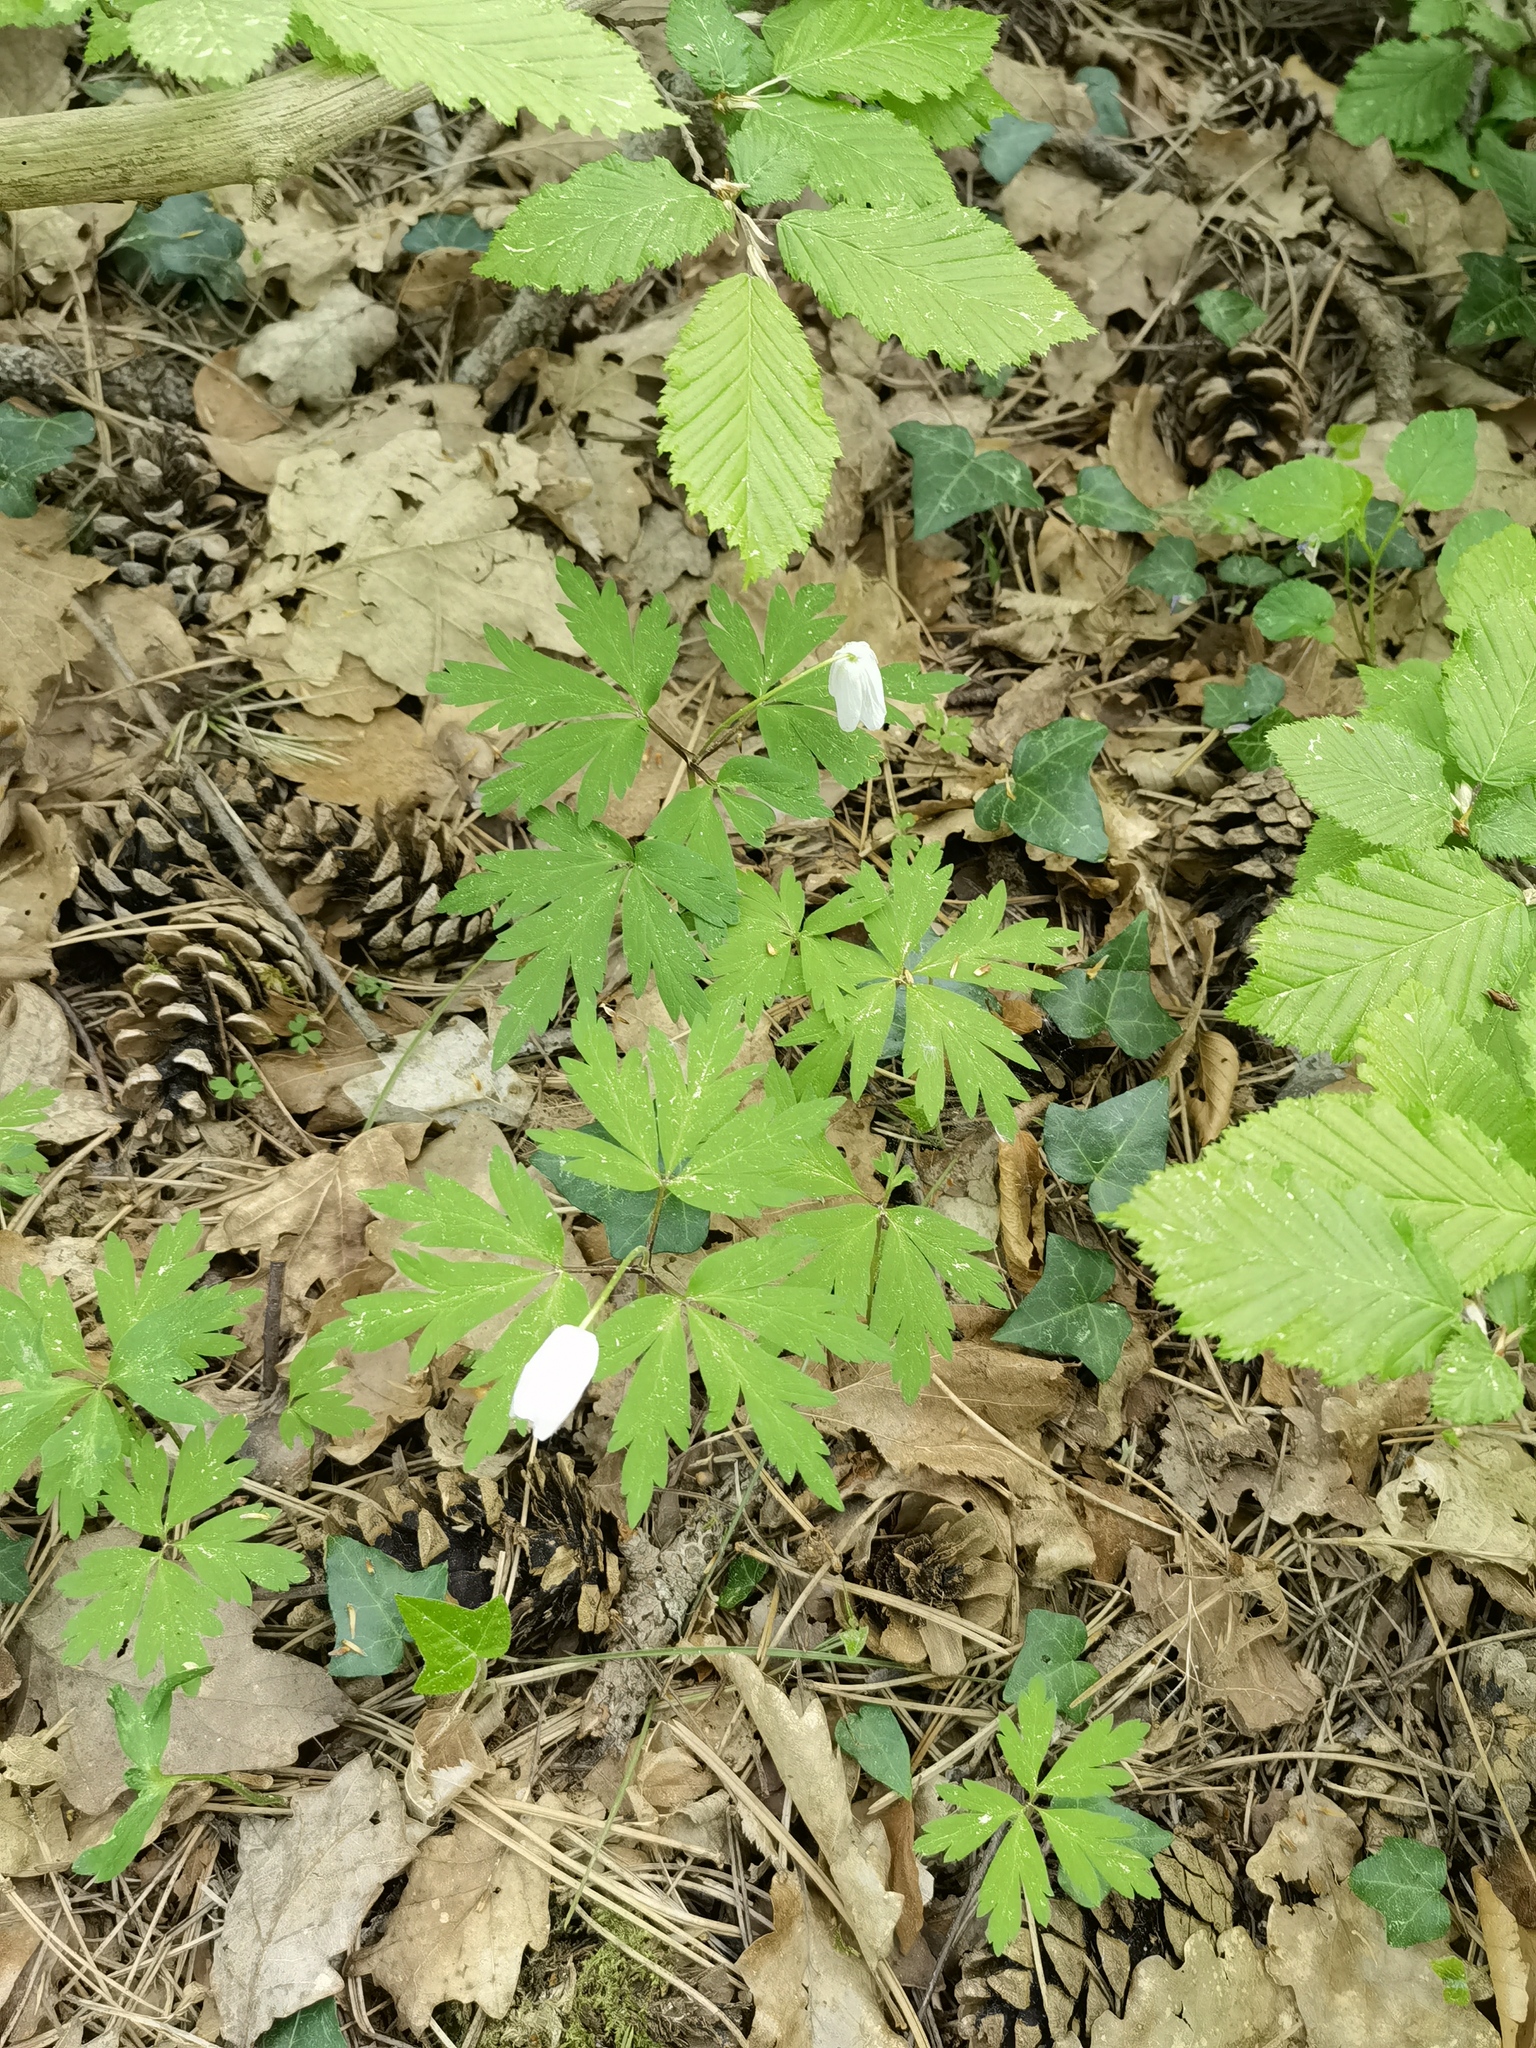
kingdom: Plantae
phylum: Tracheophyta
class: Magnoliopsida
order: Ranunculales
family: Ranunculaceae
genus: Anemone
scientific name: Anemone nemorosa
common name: Wood anemone
